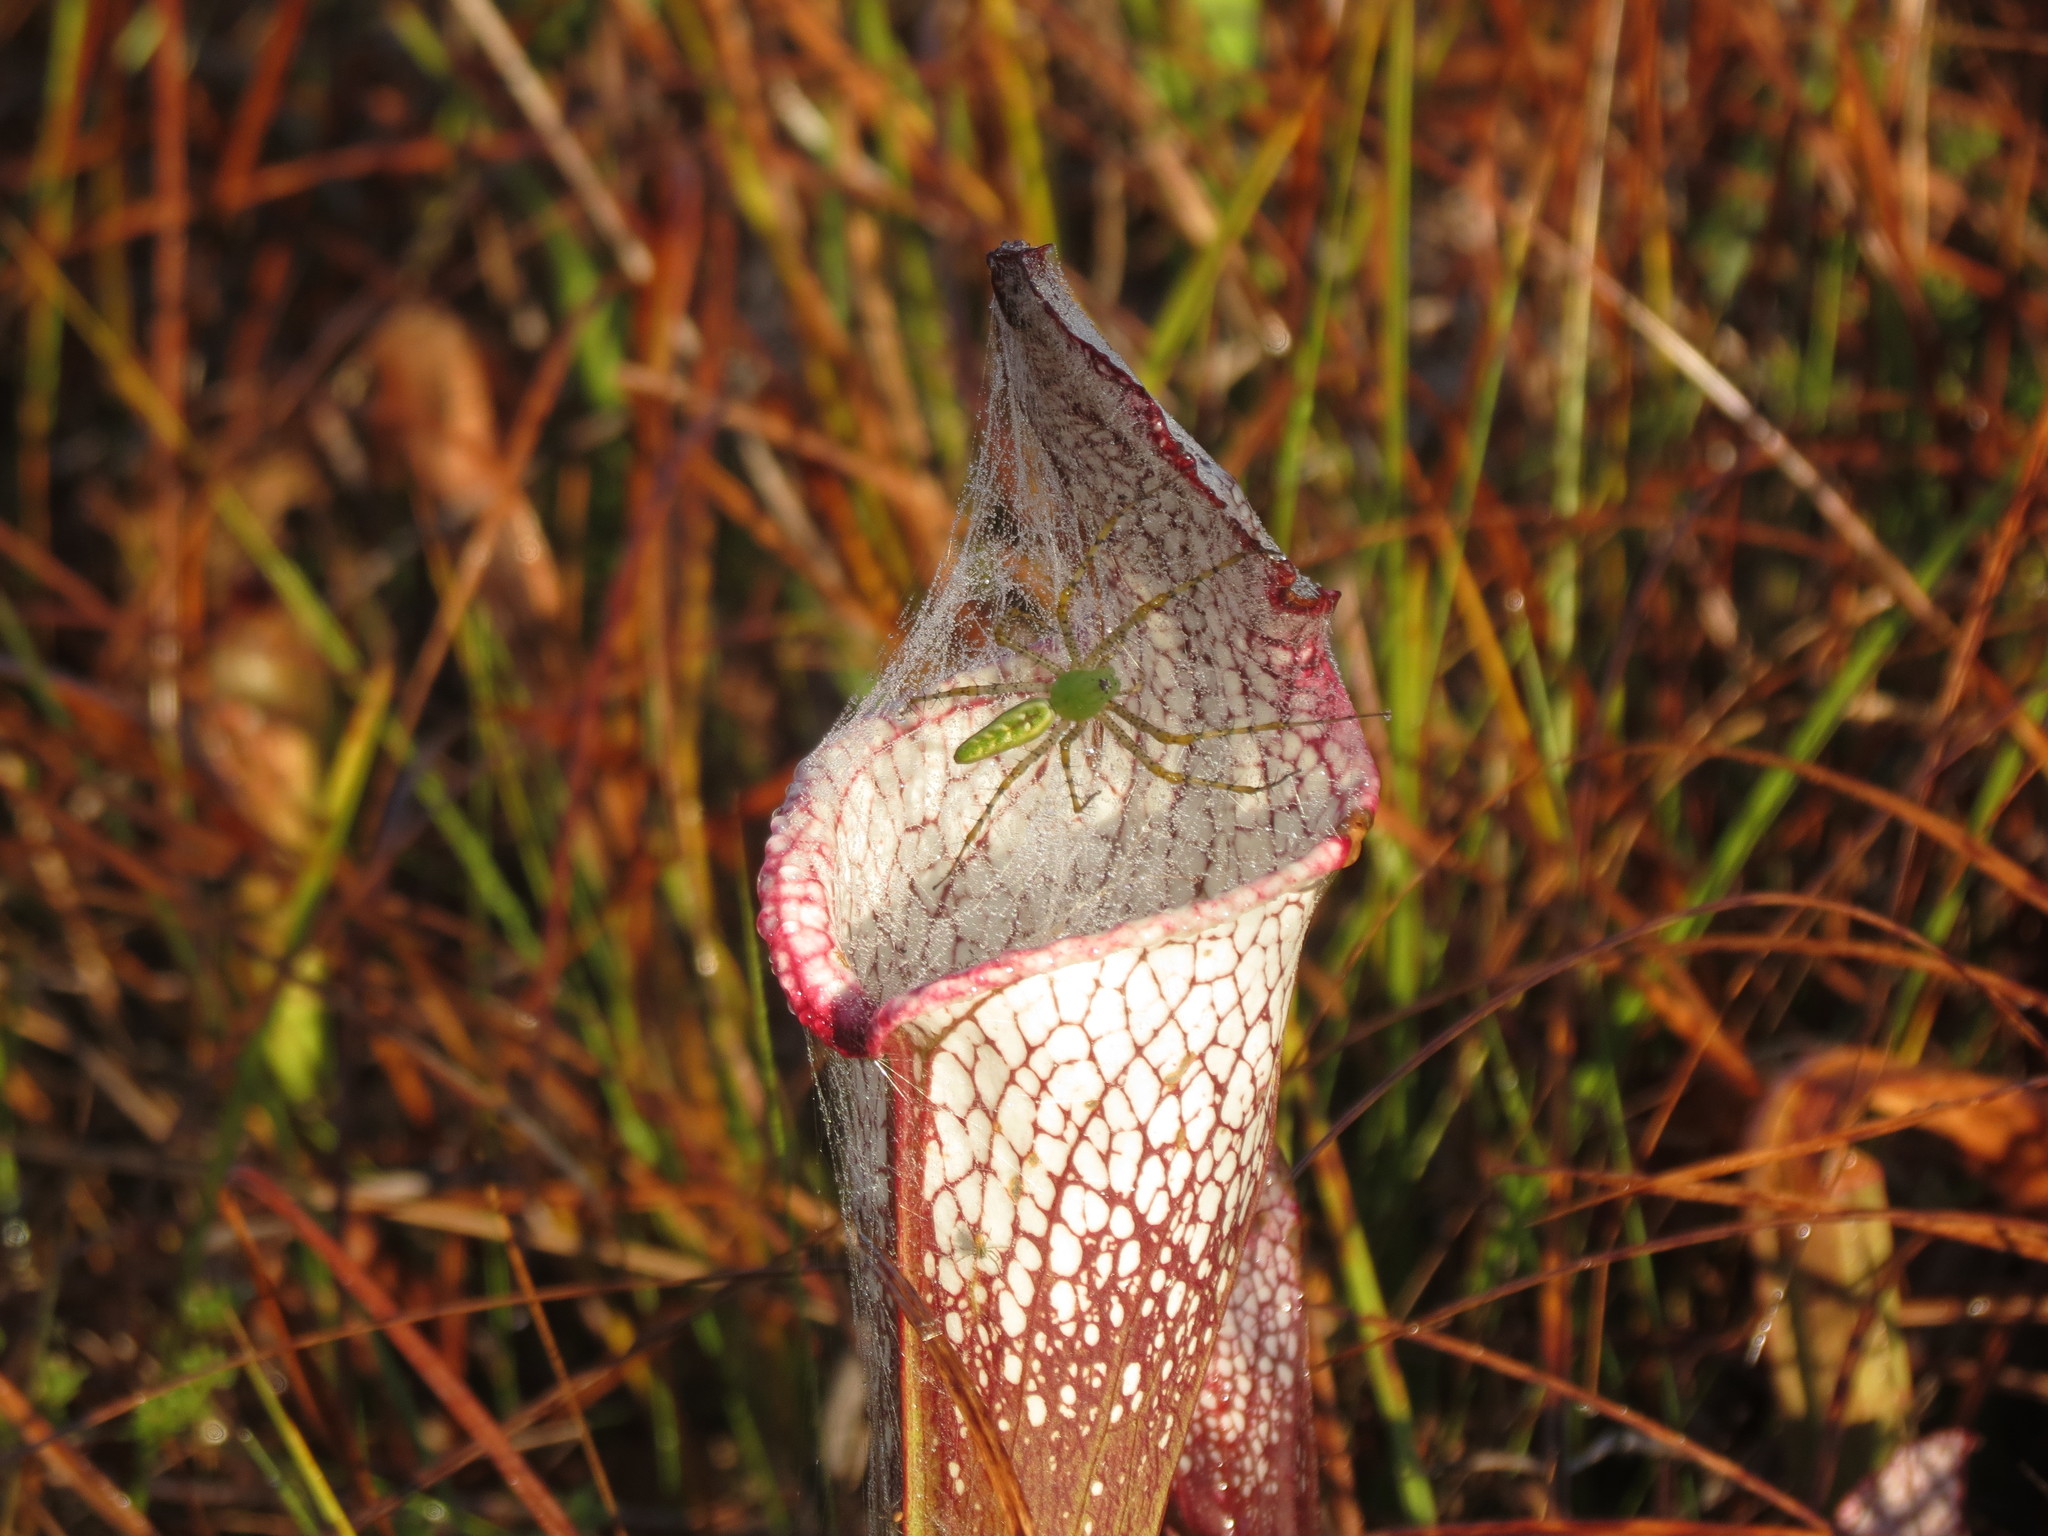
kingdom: Animalia
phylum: Arthropoda
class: Arachnida
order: Araneae
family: Oxyopidae
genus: Peucetia
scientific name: Peucetia viridans
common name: Lynx spiders
